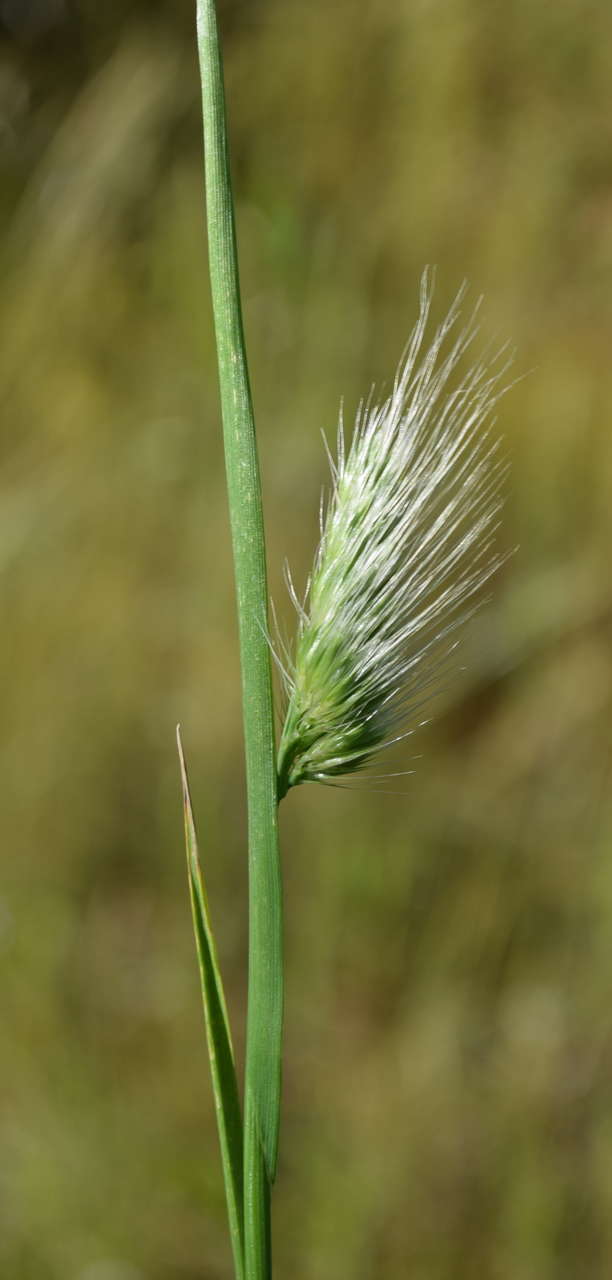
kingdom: Plantae
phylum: Tracheophyta
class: Liliopsida
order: Poales
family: Poaceae
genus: Cynosurus
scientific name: Cynosurus echinatus
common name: Rough dog's-tail
